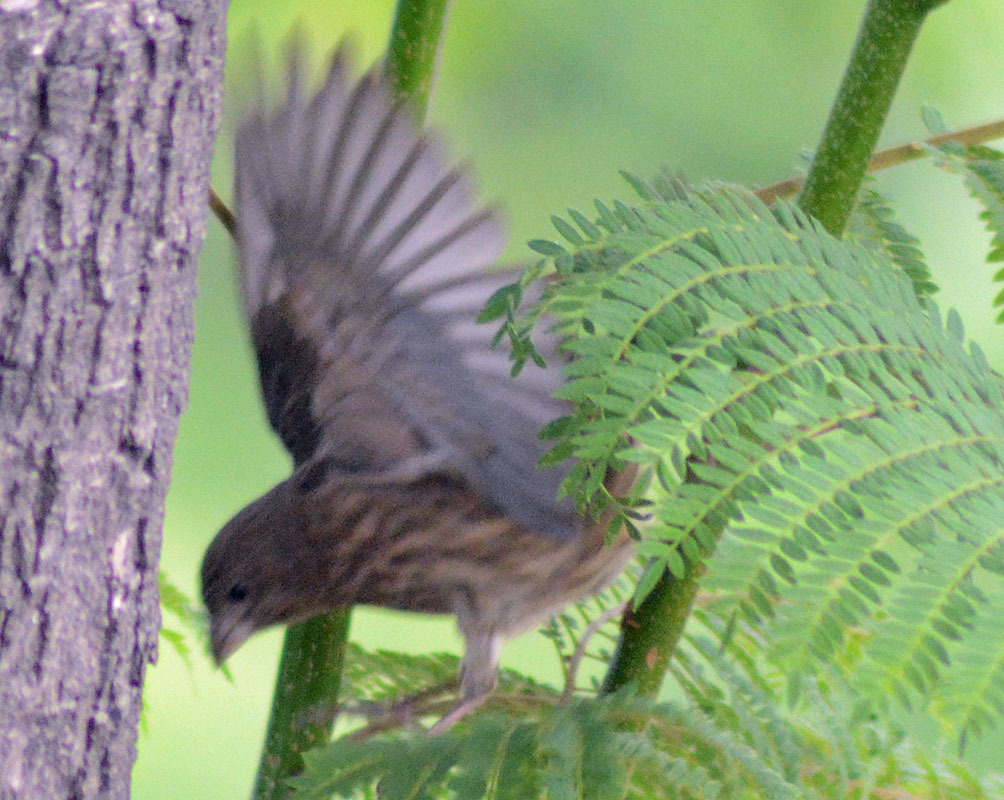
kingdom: Animalia
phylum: Chordata
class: Aves
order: Passeriformes
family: Fringillidae
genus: Haemorhous
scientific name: Haemorhous mexicanus
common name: House finch
